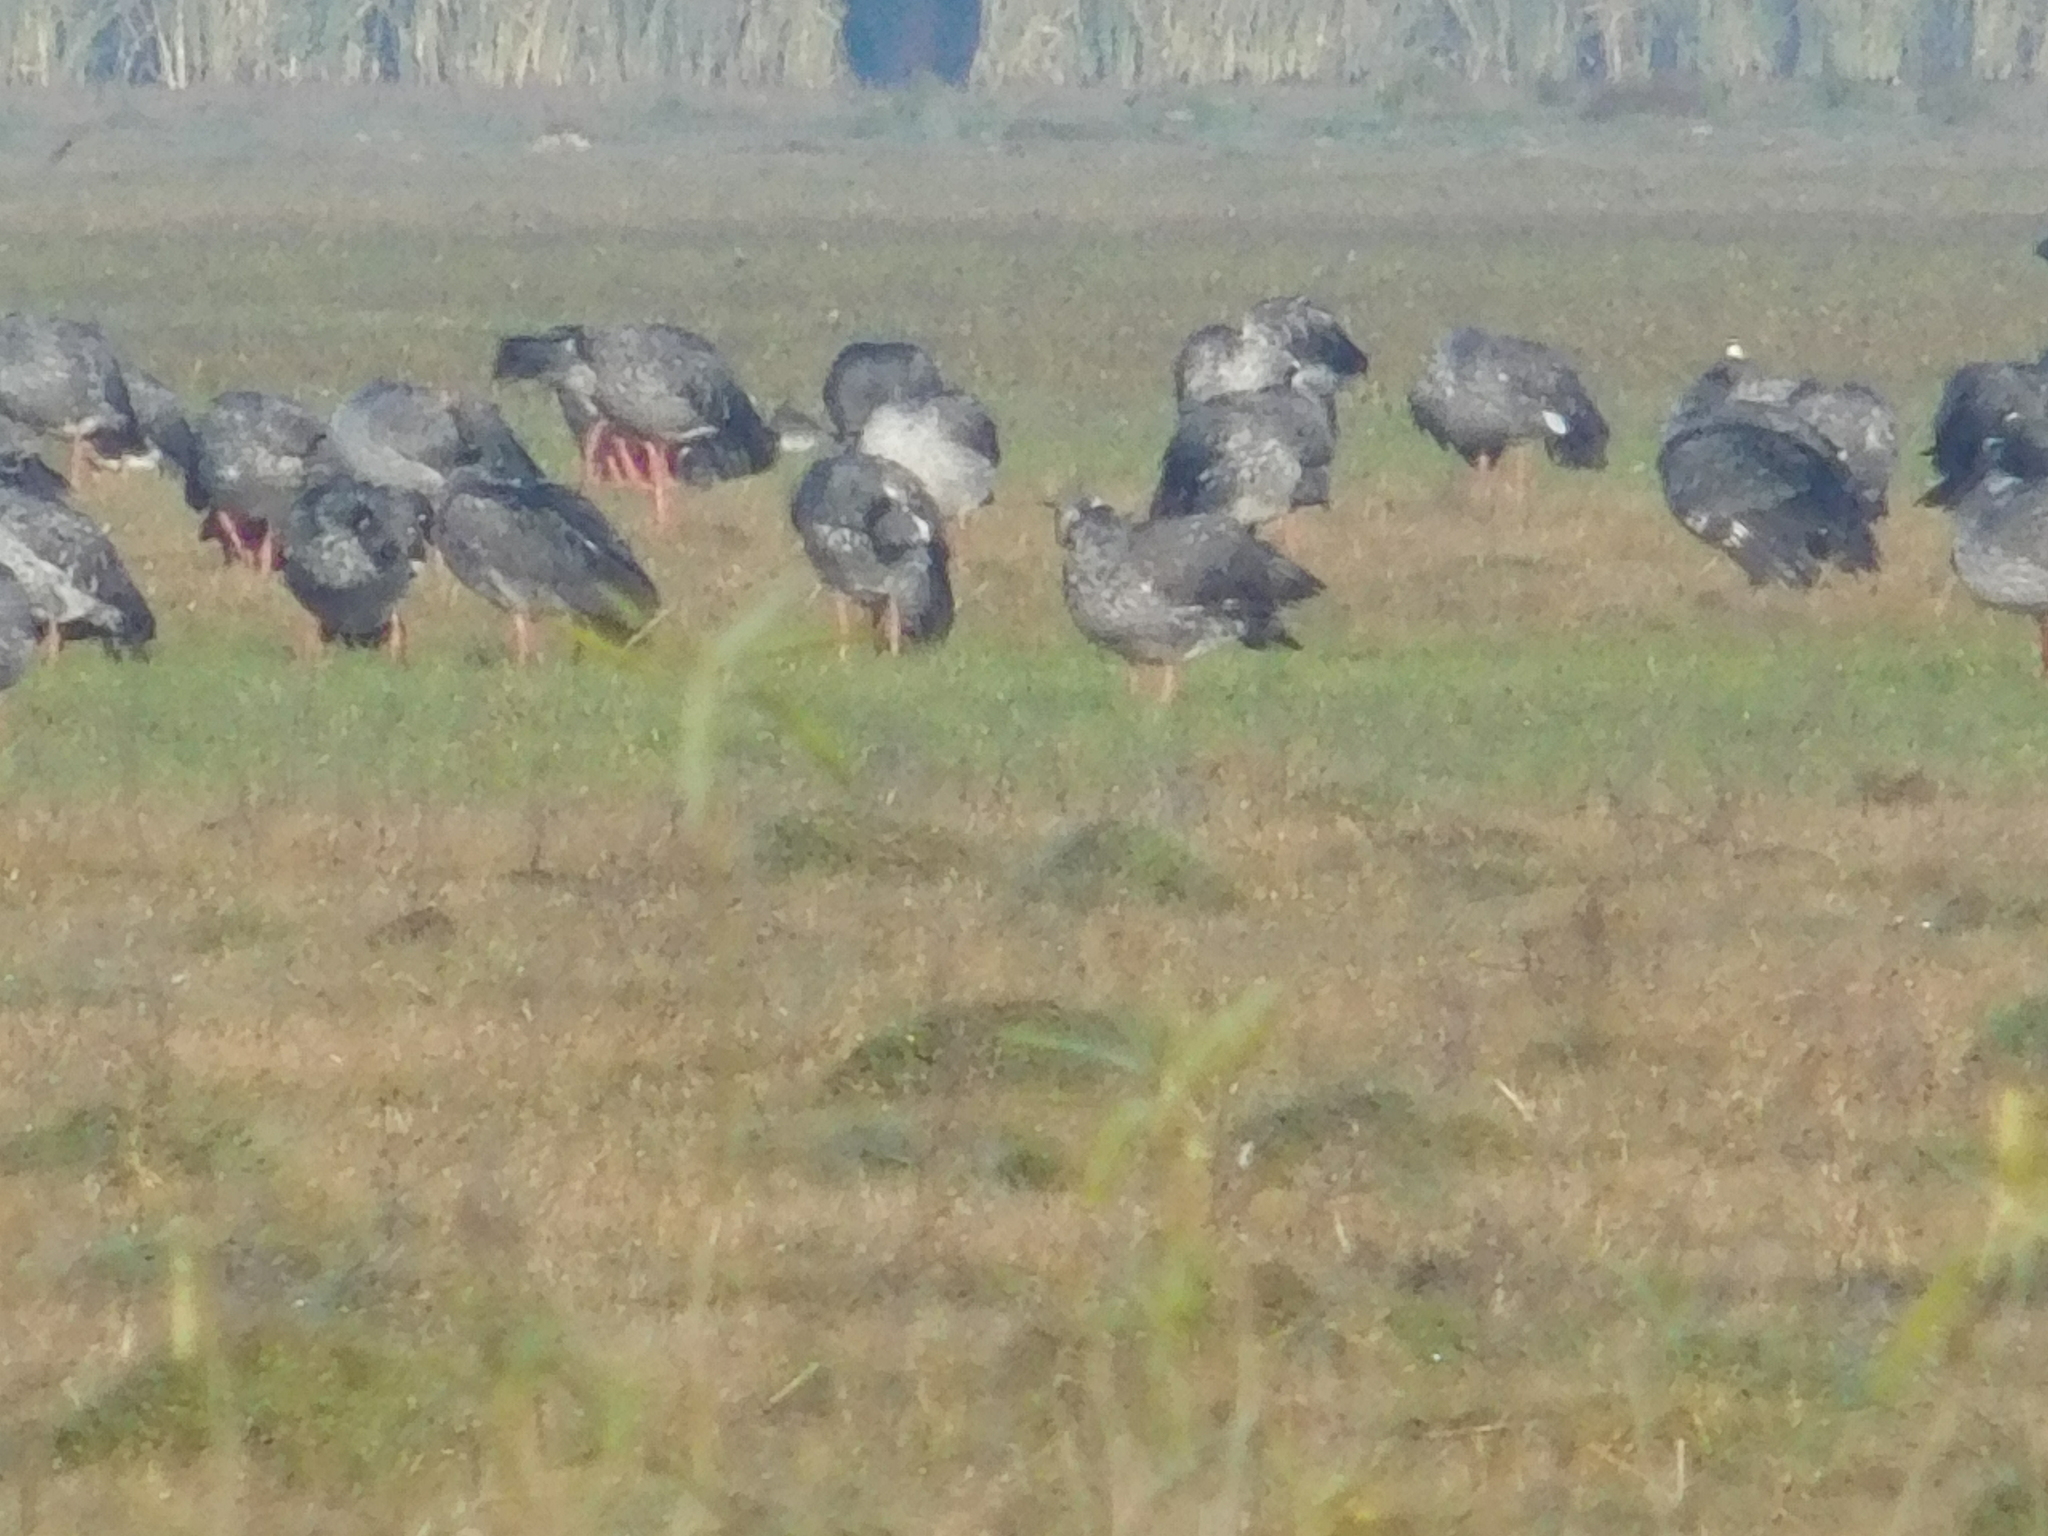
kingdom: Animalia
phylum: Chordata
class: Aves
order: Anseriformes
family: Anhimidae
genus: Chauna
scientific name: Chauna torquata
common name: Southern screamer
